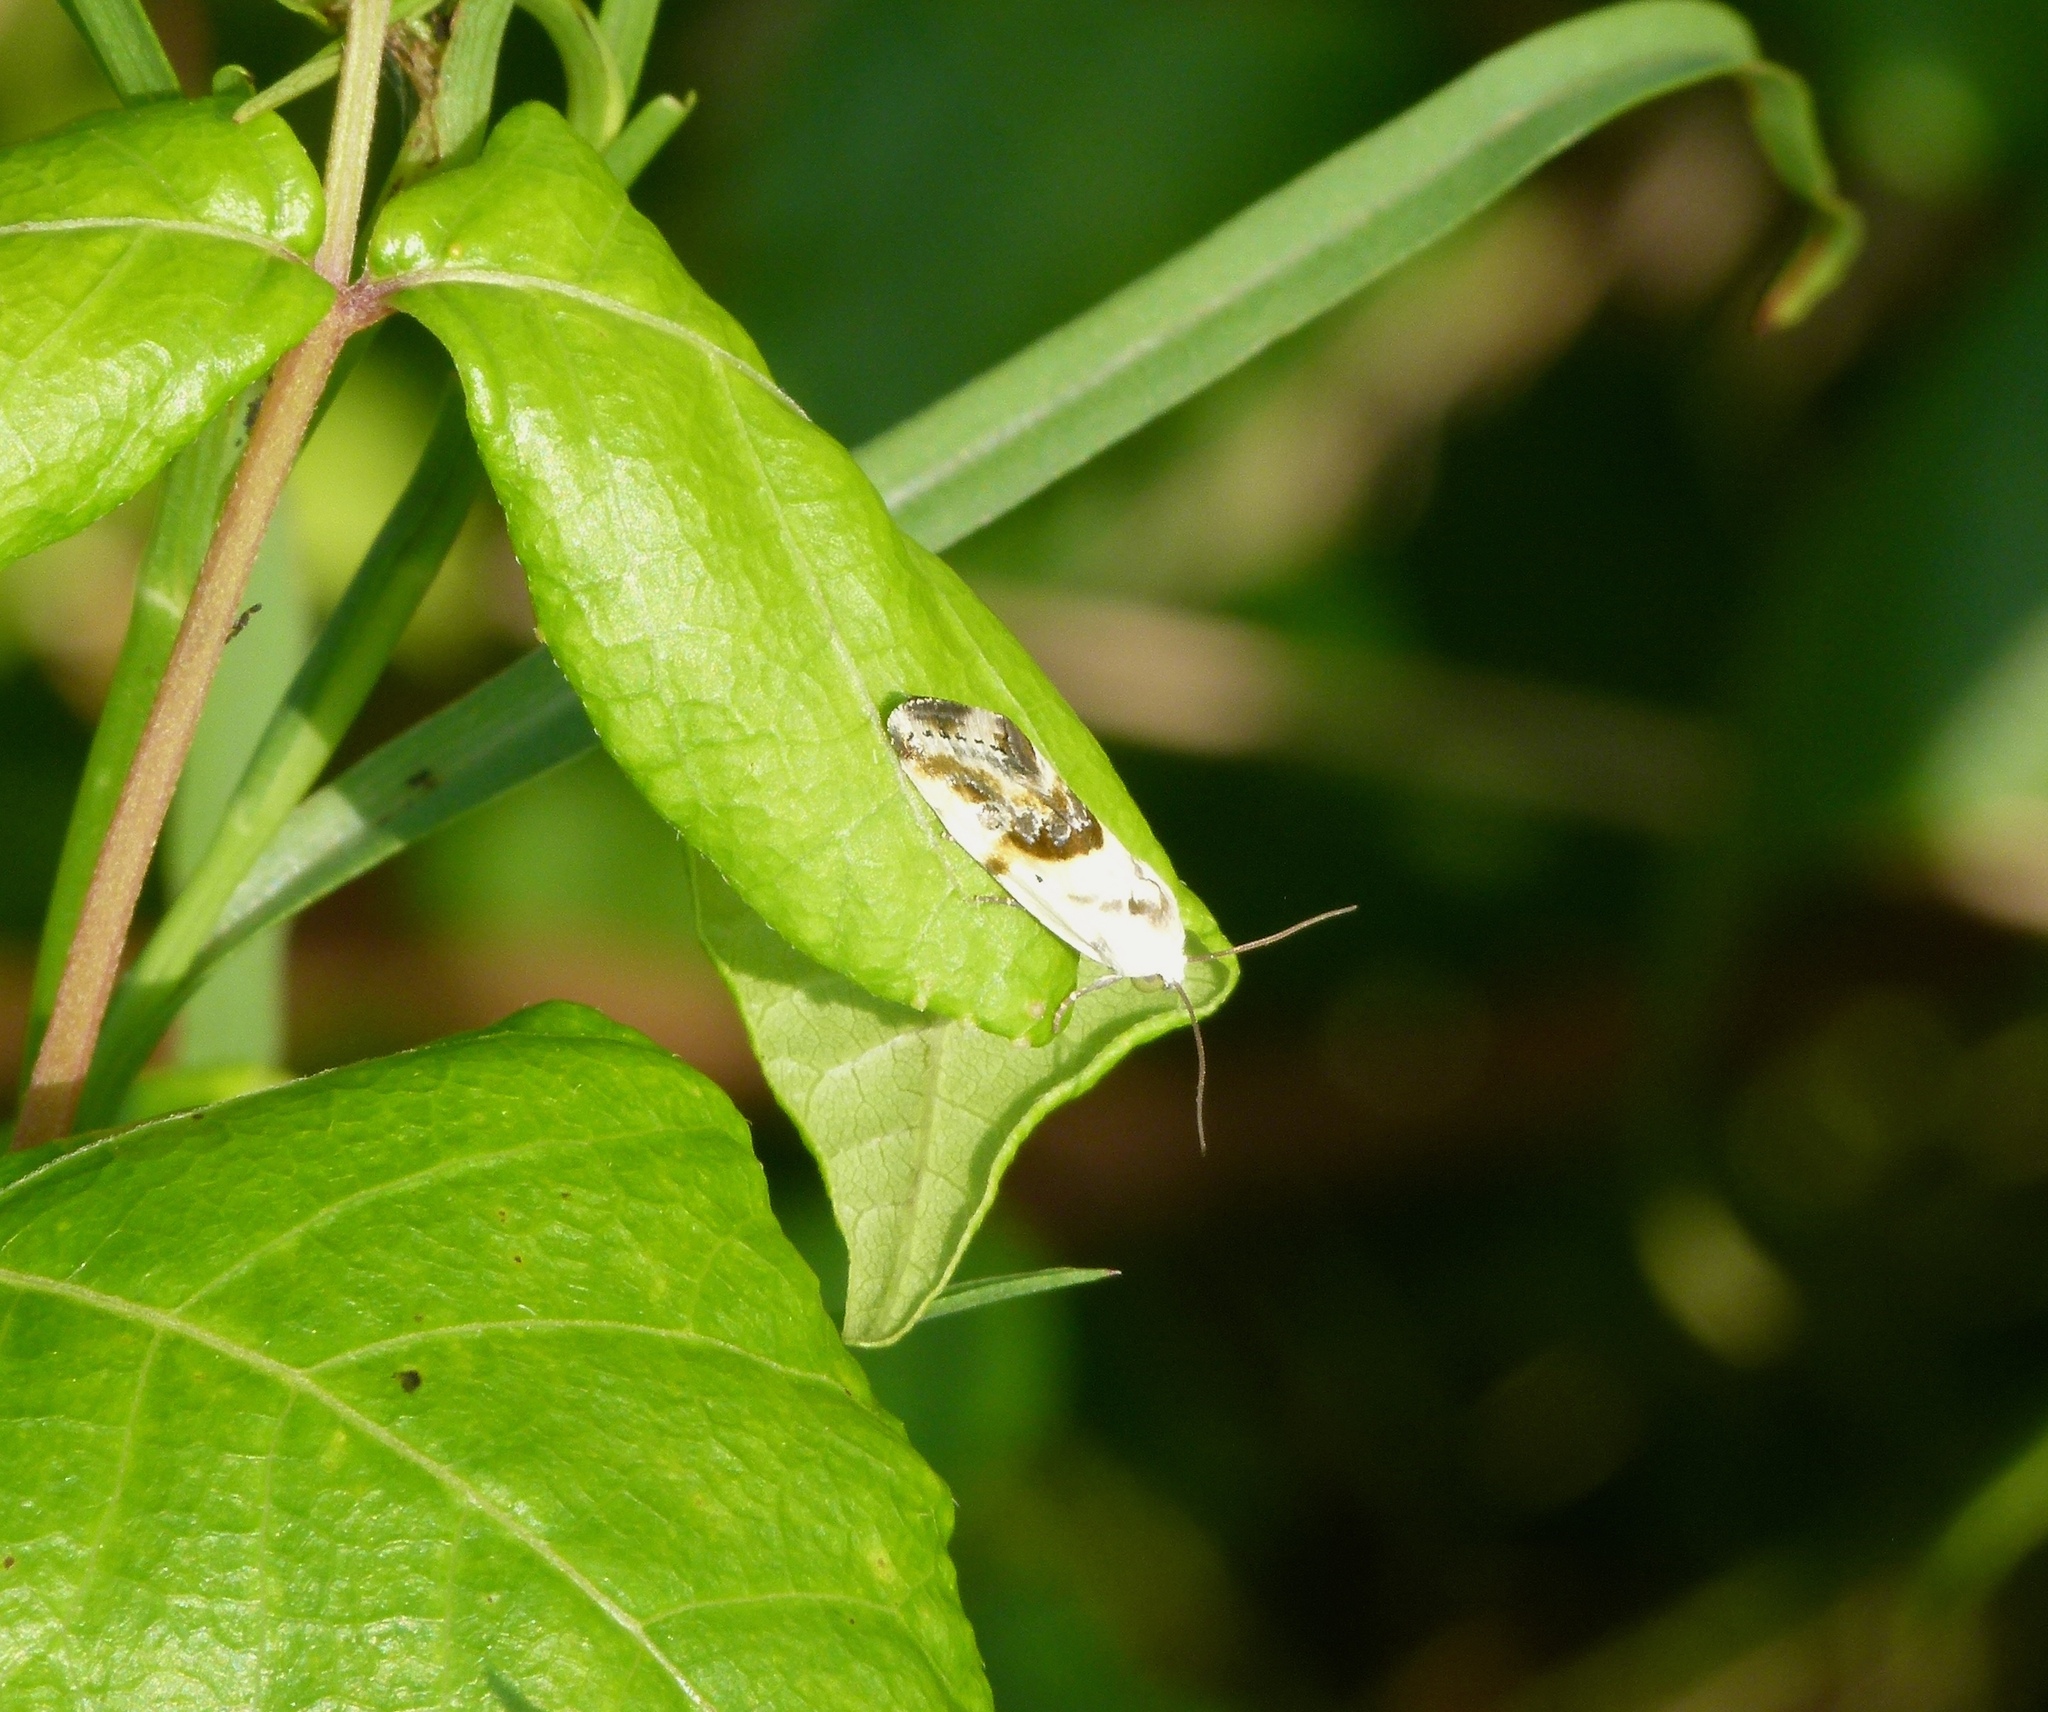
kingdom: Animalia
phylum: Arthropoda
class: Insecta
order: Lepidoptera
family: Noctuidae
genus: Acontia
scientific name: Acontia candefacta
